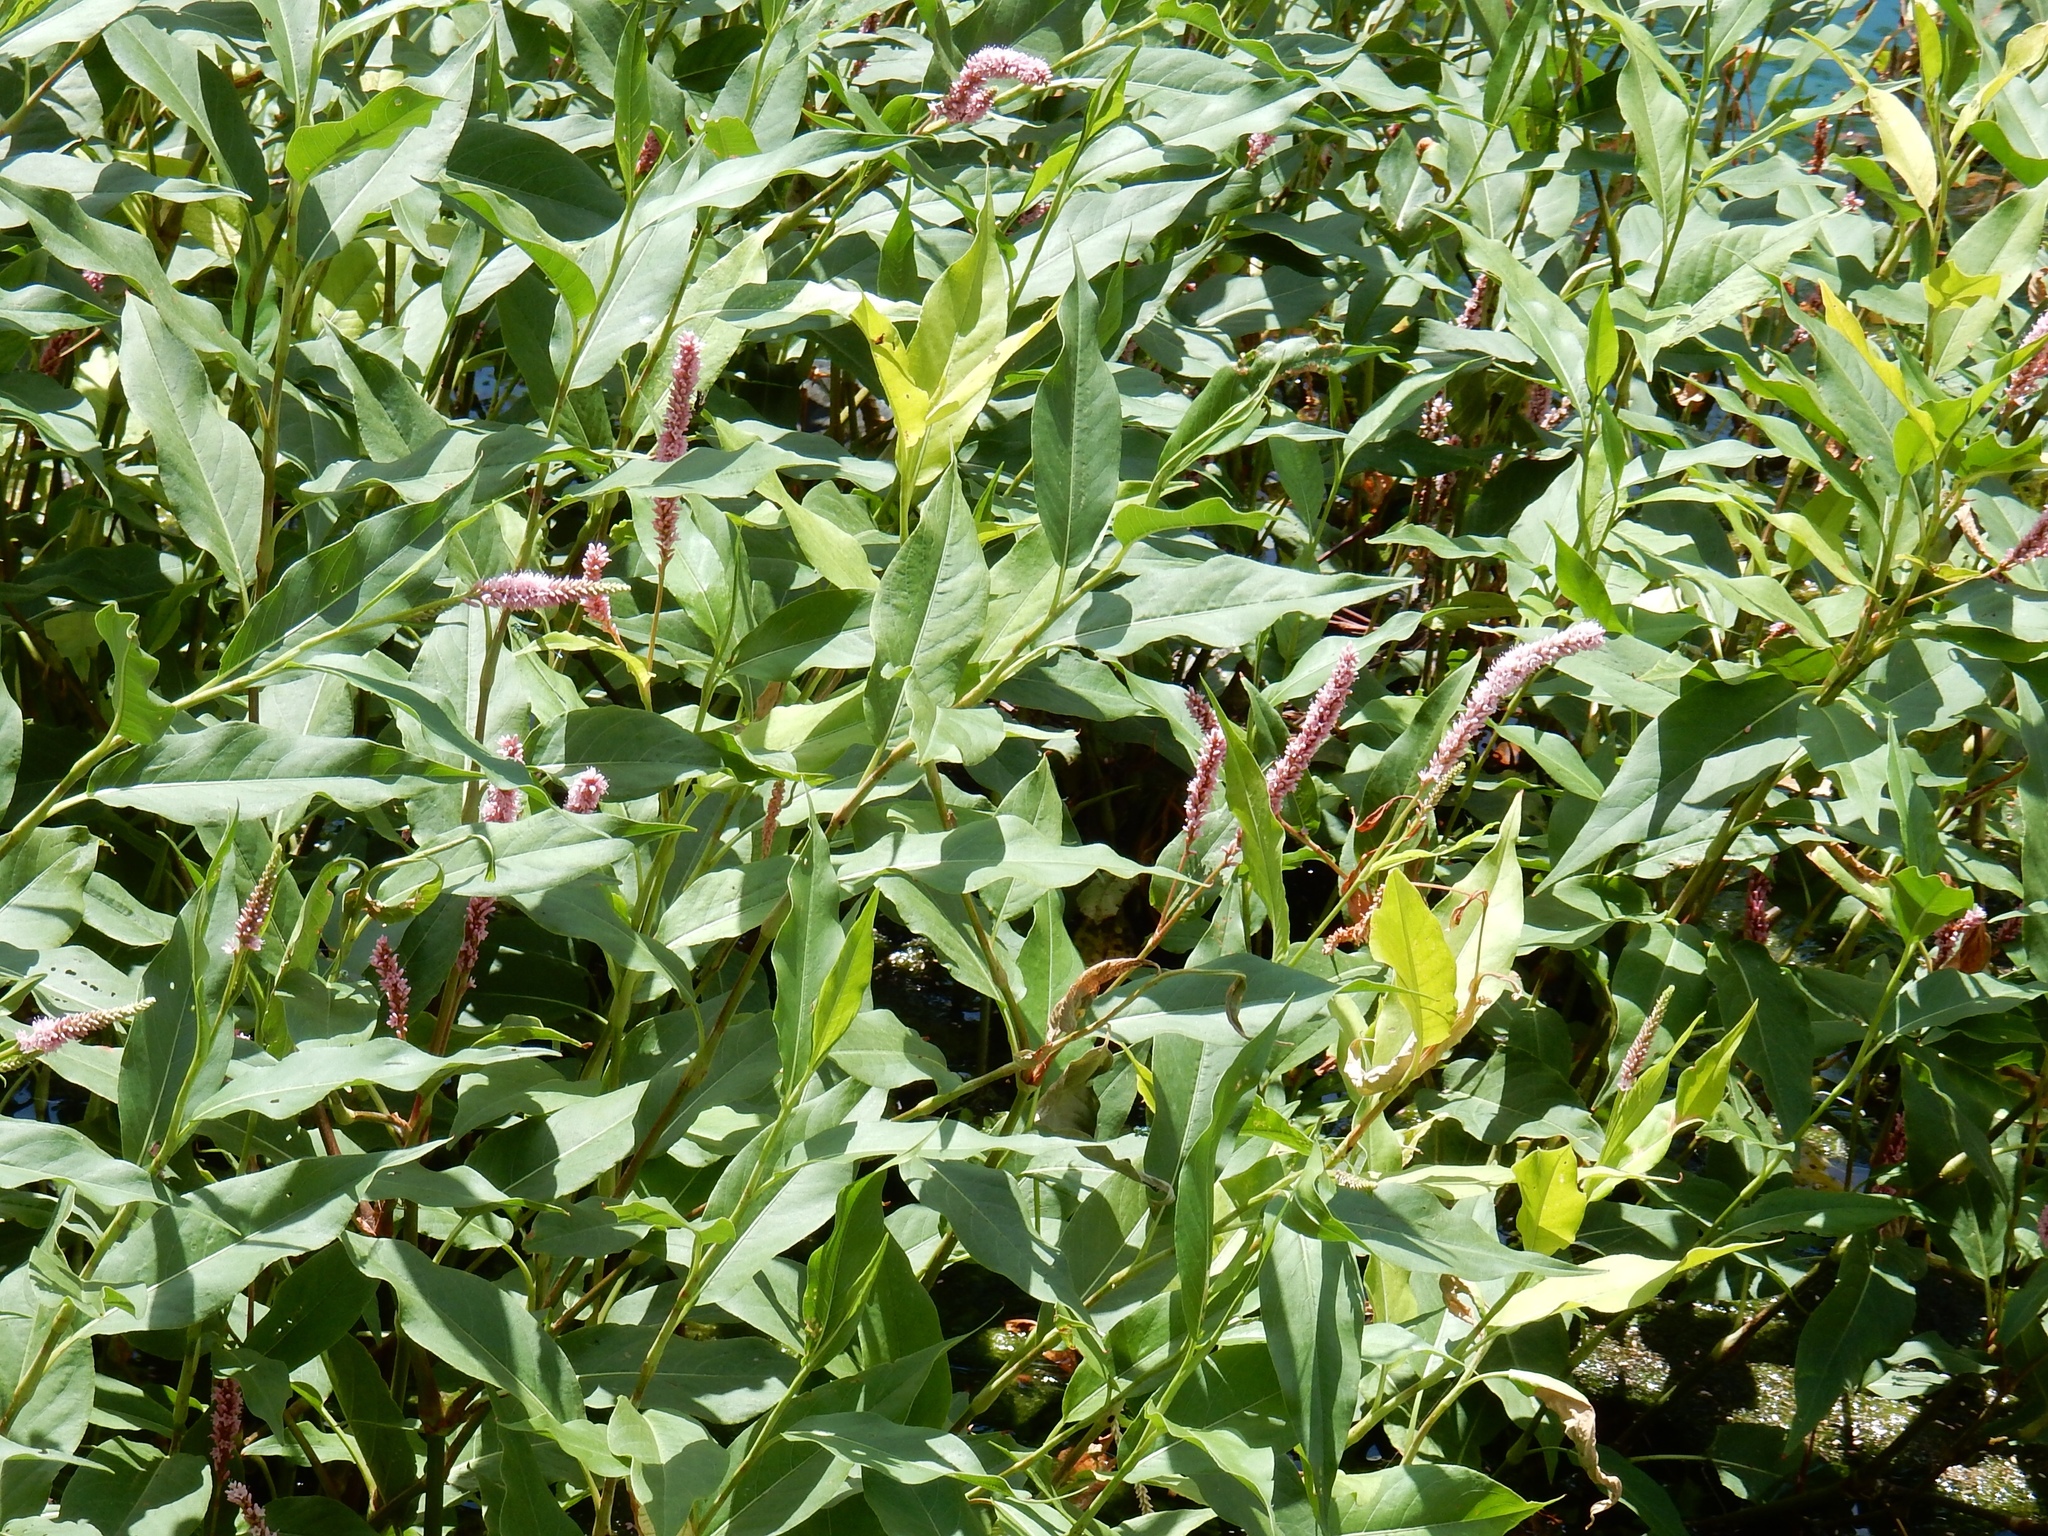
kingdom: Plantae
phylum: Tracheophyta
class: Magnoliopsida
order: Caryophyllales
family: Polygonaceae
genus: Persicaria
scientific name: Persicaria amphibia
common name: Amphibious bistort
